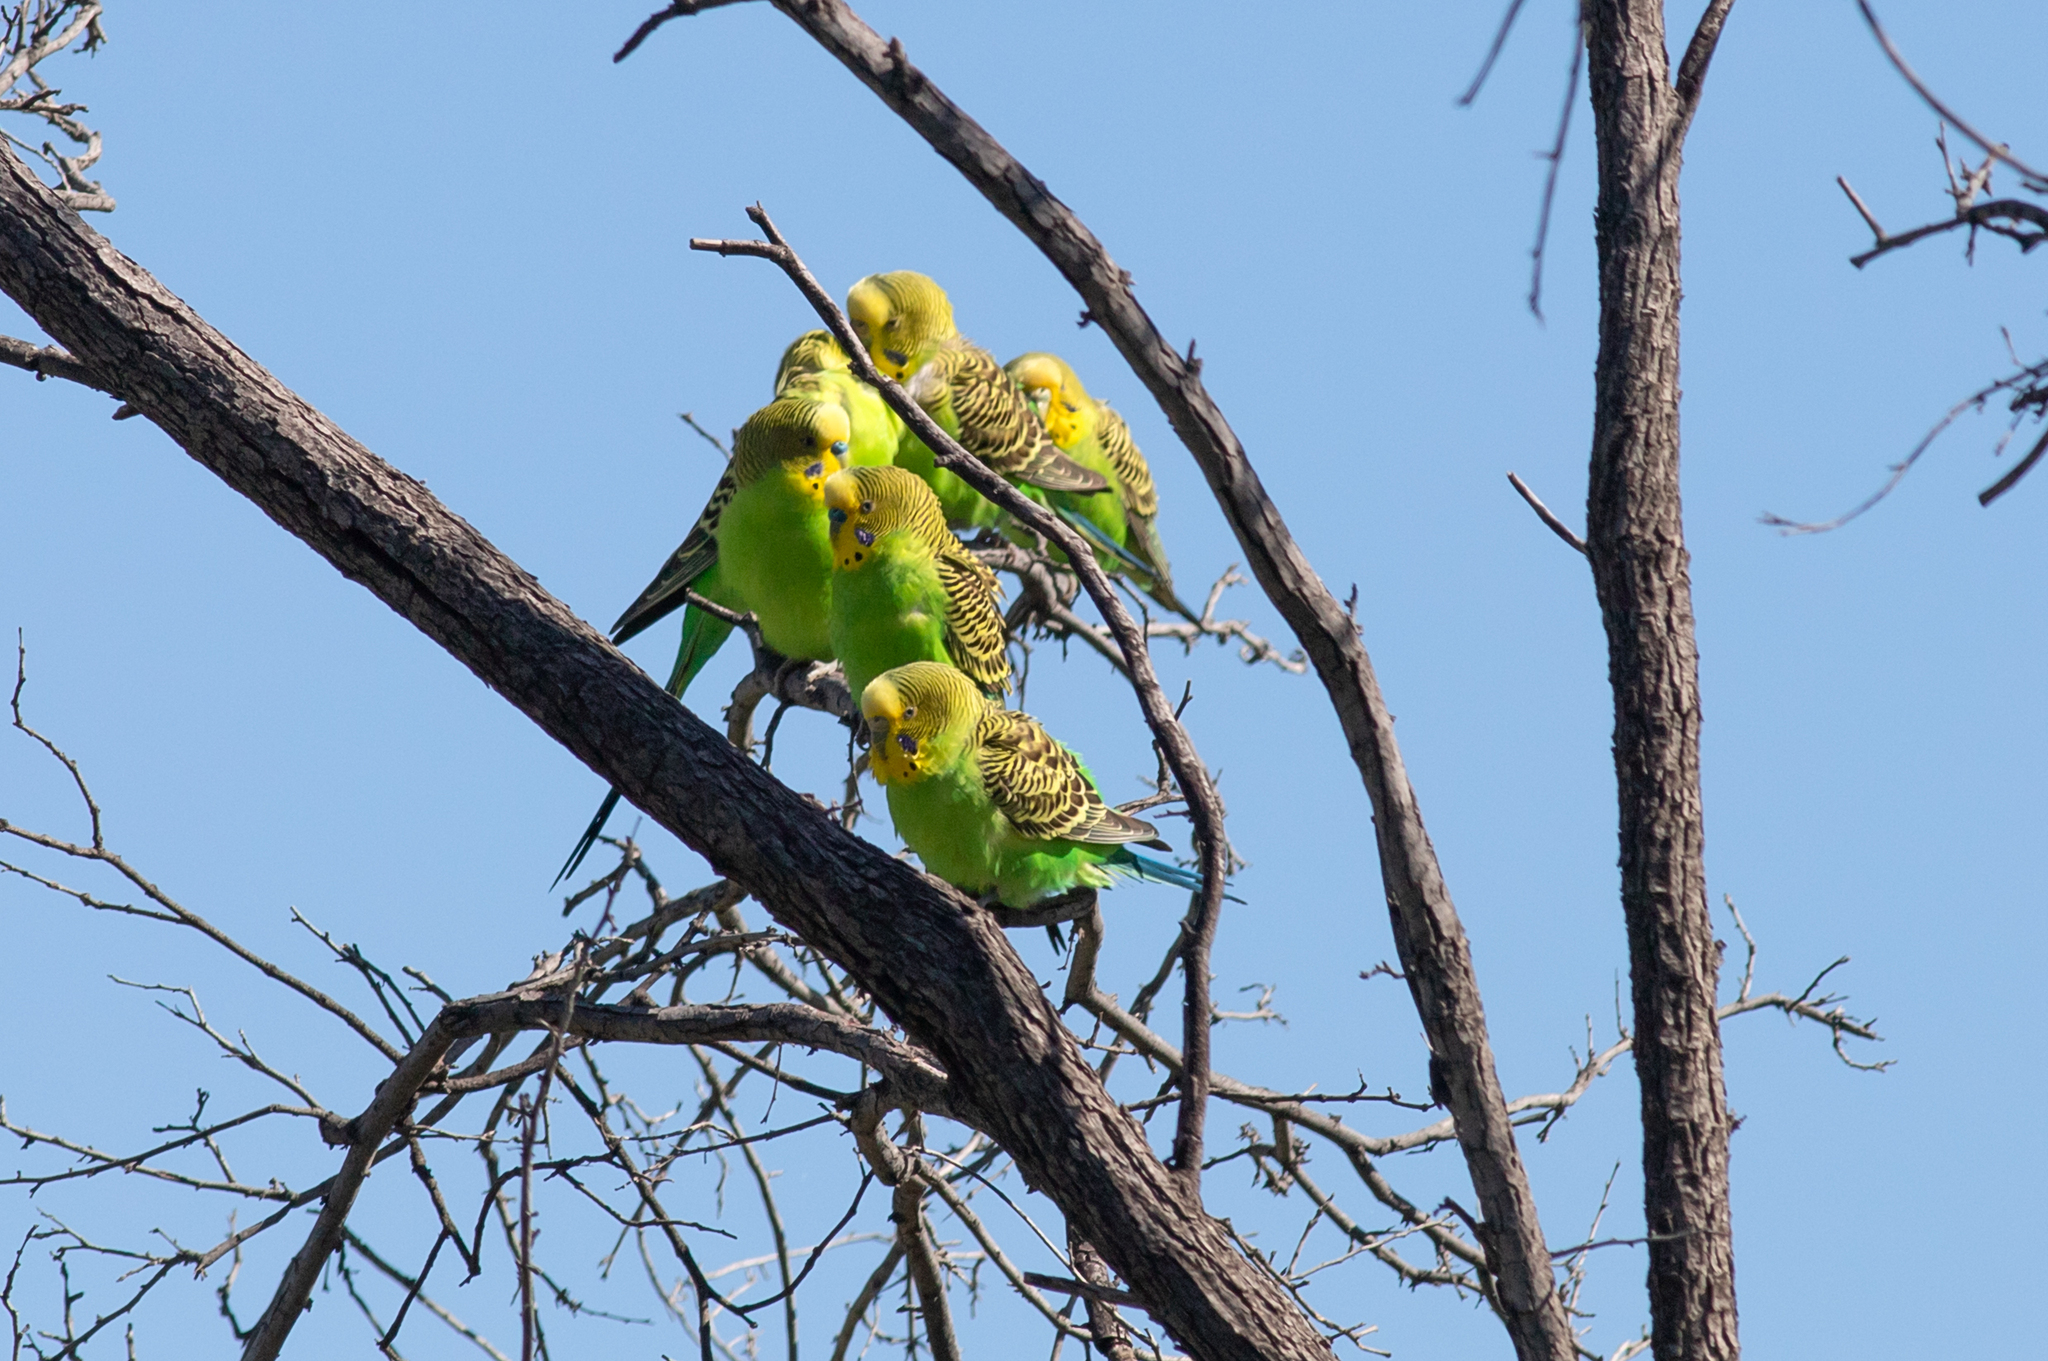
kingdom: Animalia
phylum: Chordata
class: Aves
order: Psittaciformes
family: Psittacidae
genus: Melopsittacus
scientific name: Melopsittacus undulatus
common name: Budgerigar
